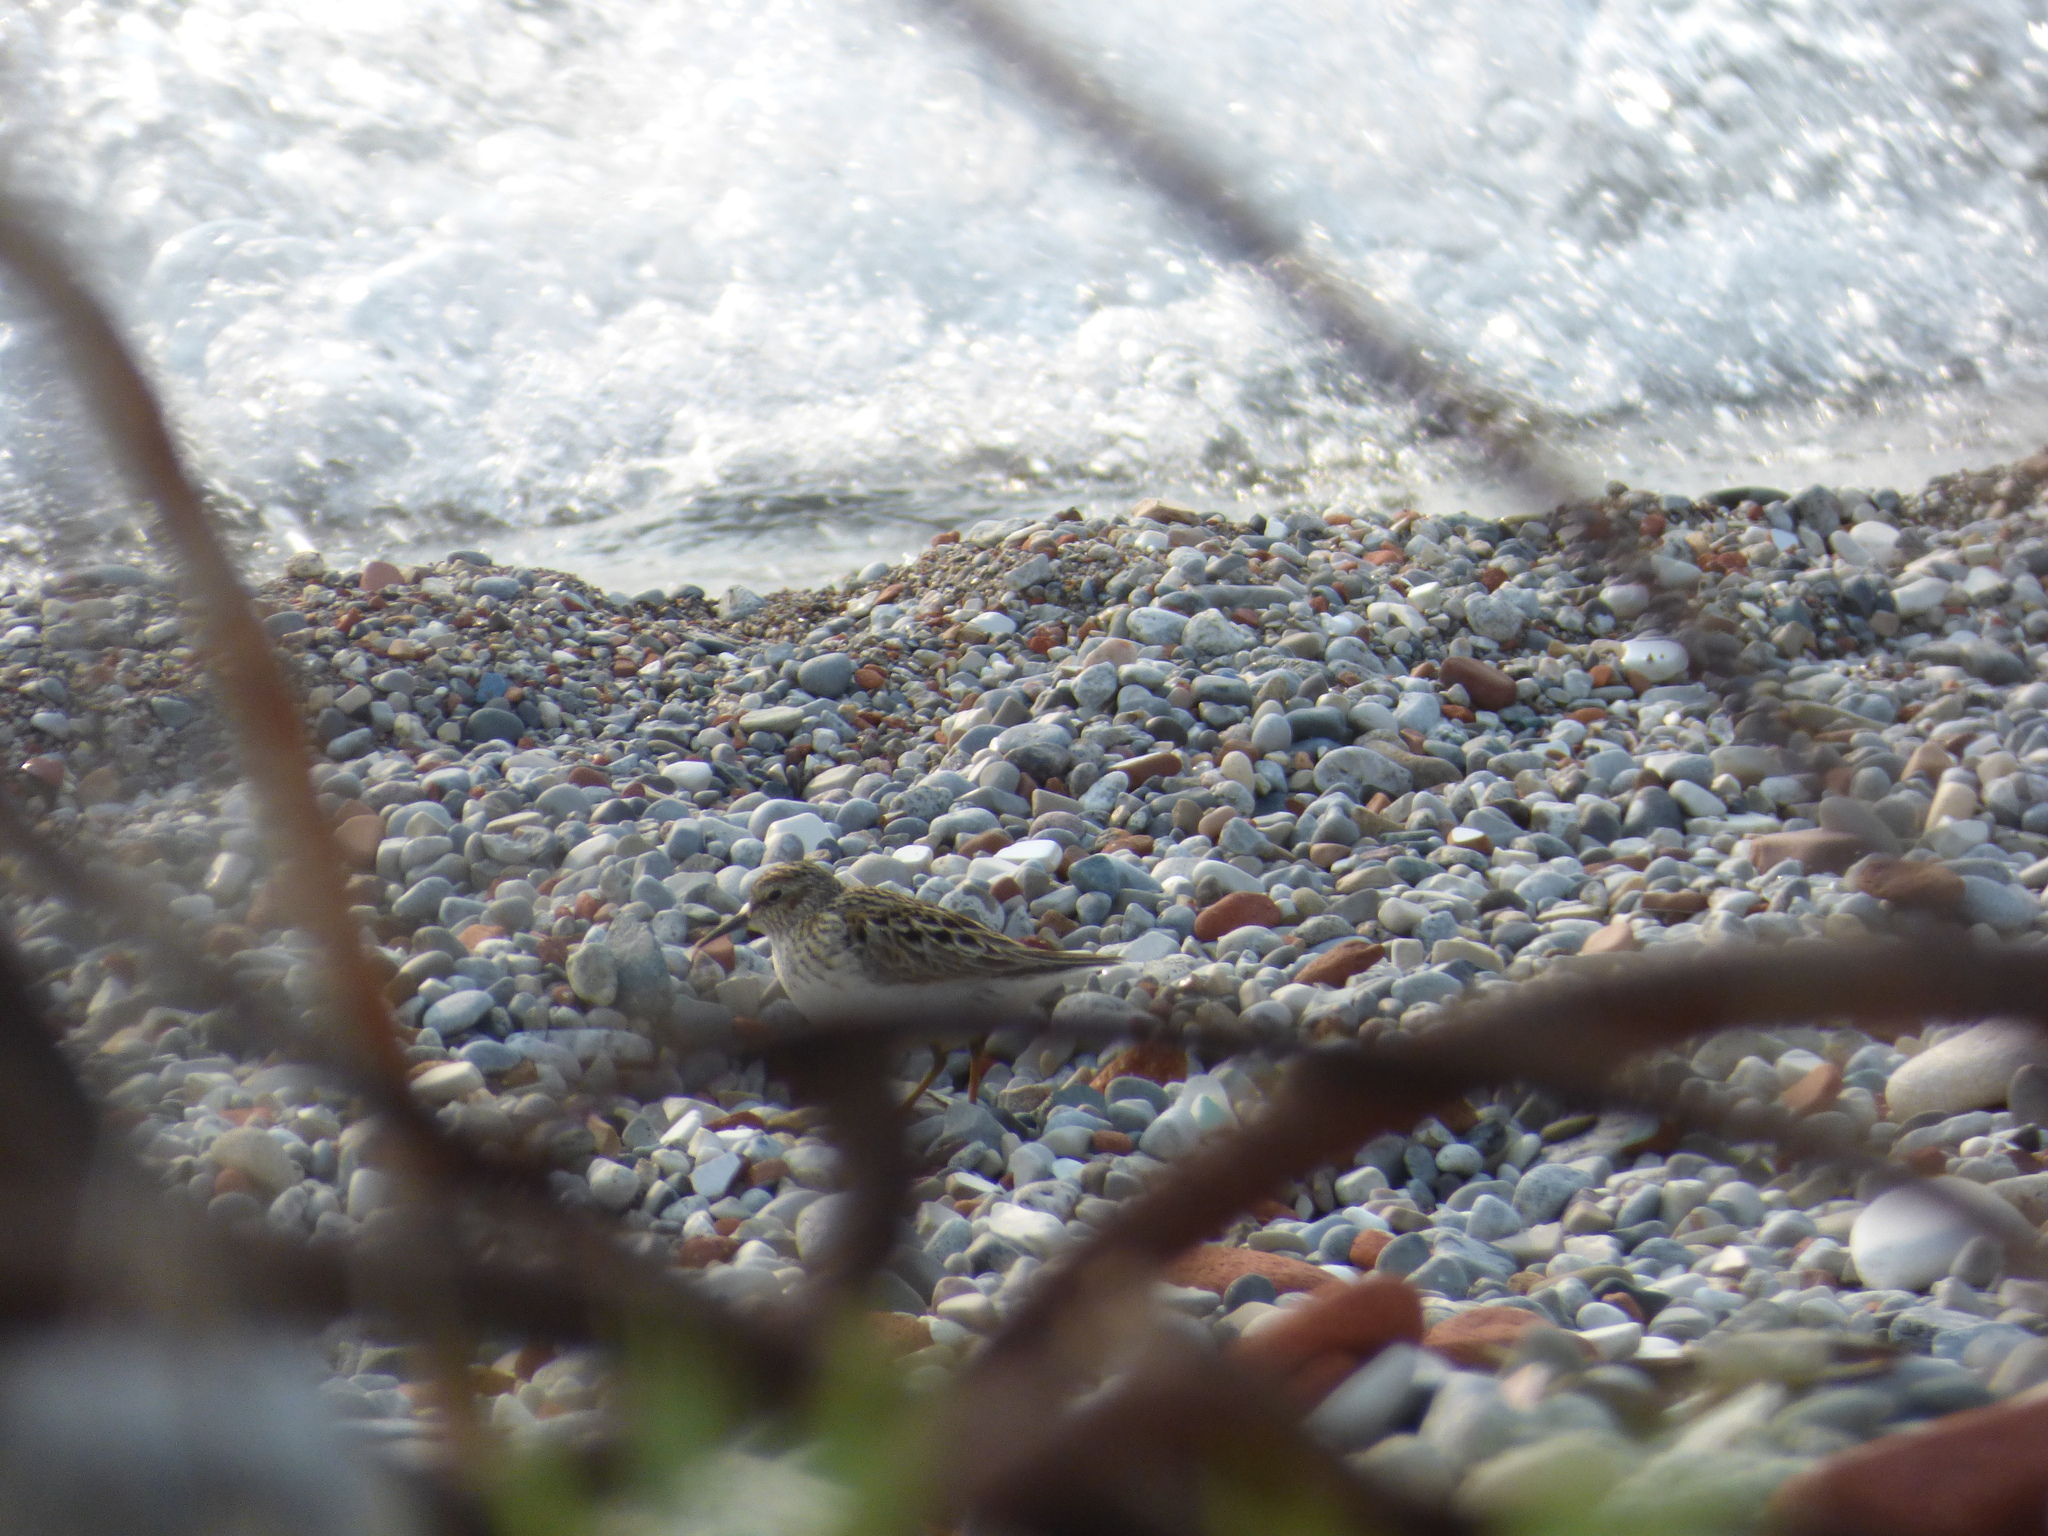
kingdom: Animalia
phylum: Chordata
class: Aves
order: Charadriiformes
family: Scolopacidae
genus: Calidris
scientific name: Calidris minutilla
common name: Least sandpiper
